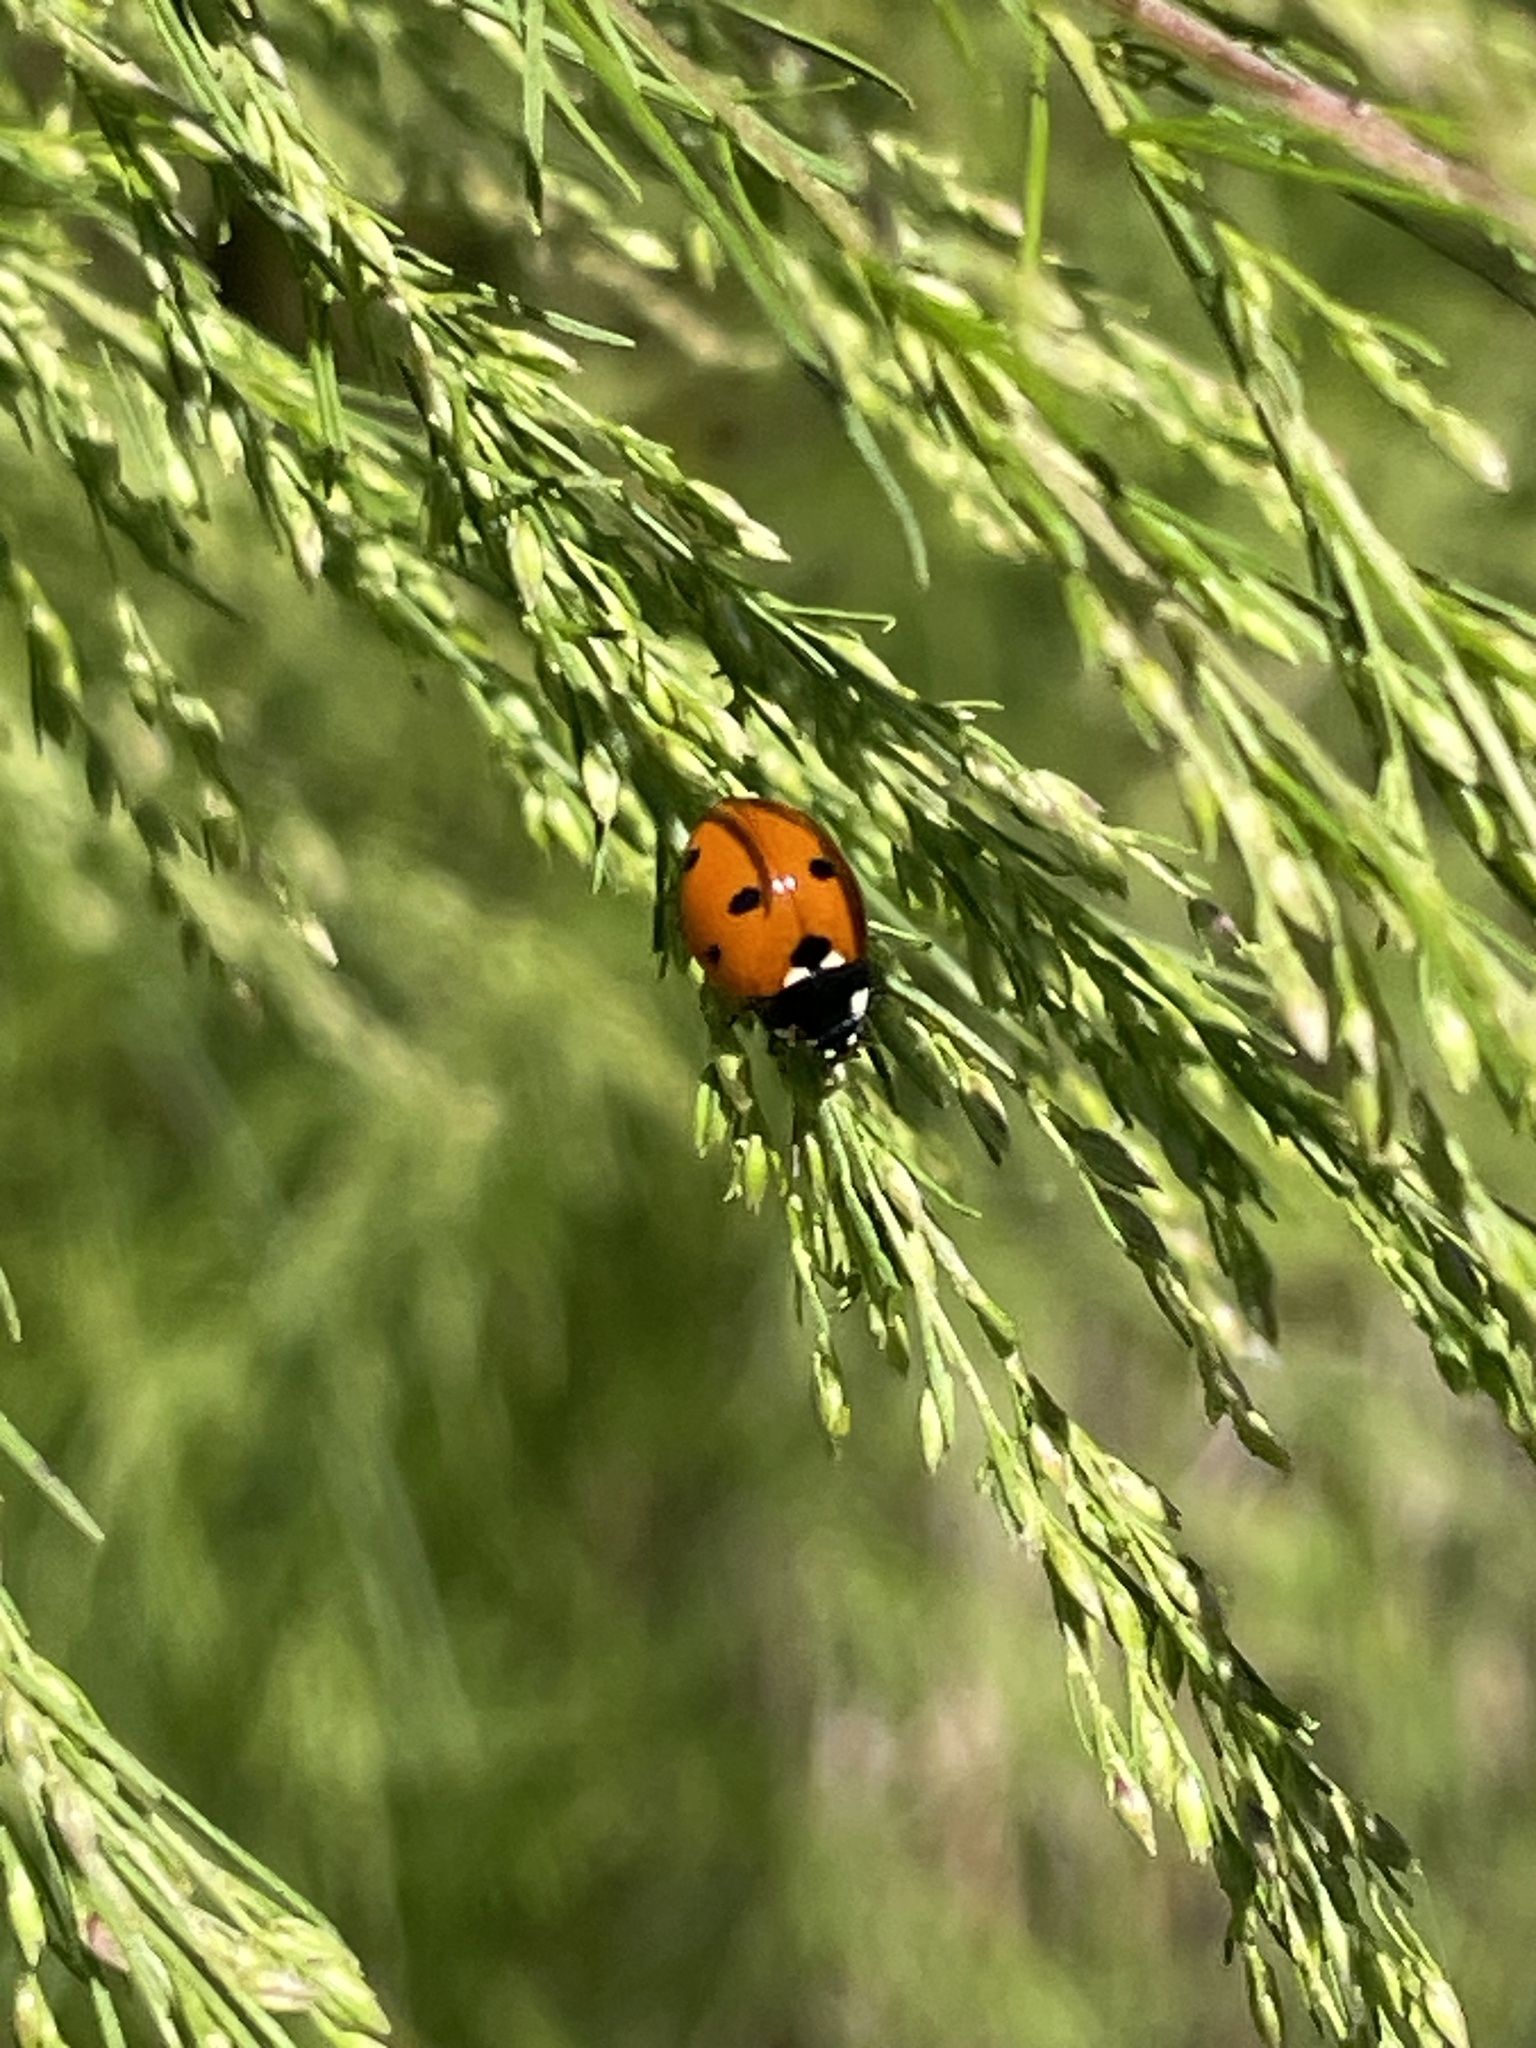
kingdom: Animalia
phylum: Arthropoda
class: Insecta
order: Coleoptera
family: Coccinellidae
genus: Coccinella
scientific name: Coccinella septempunctata
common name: Sevenspotted lady beetle
